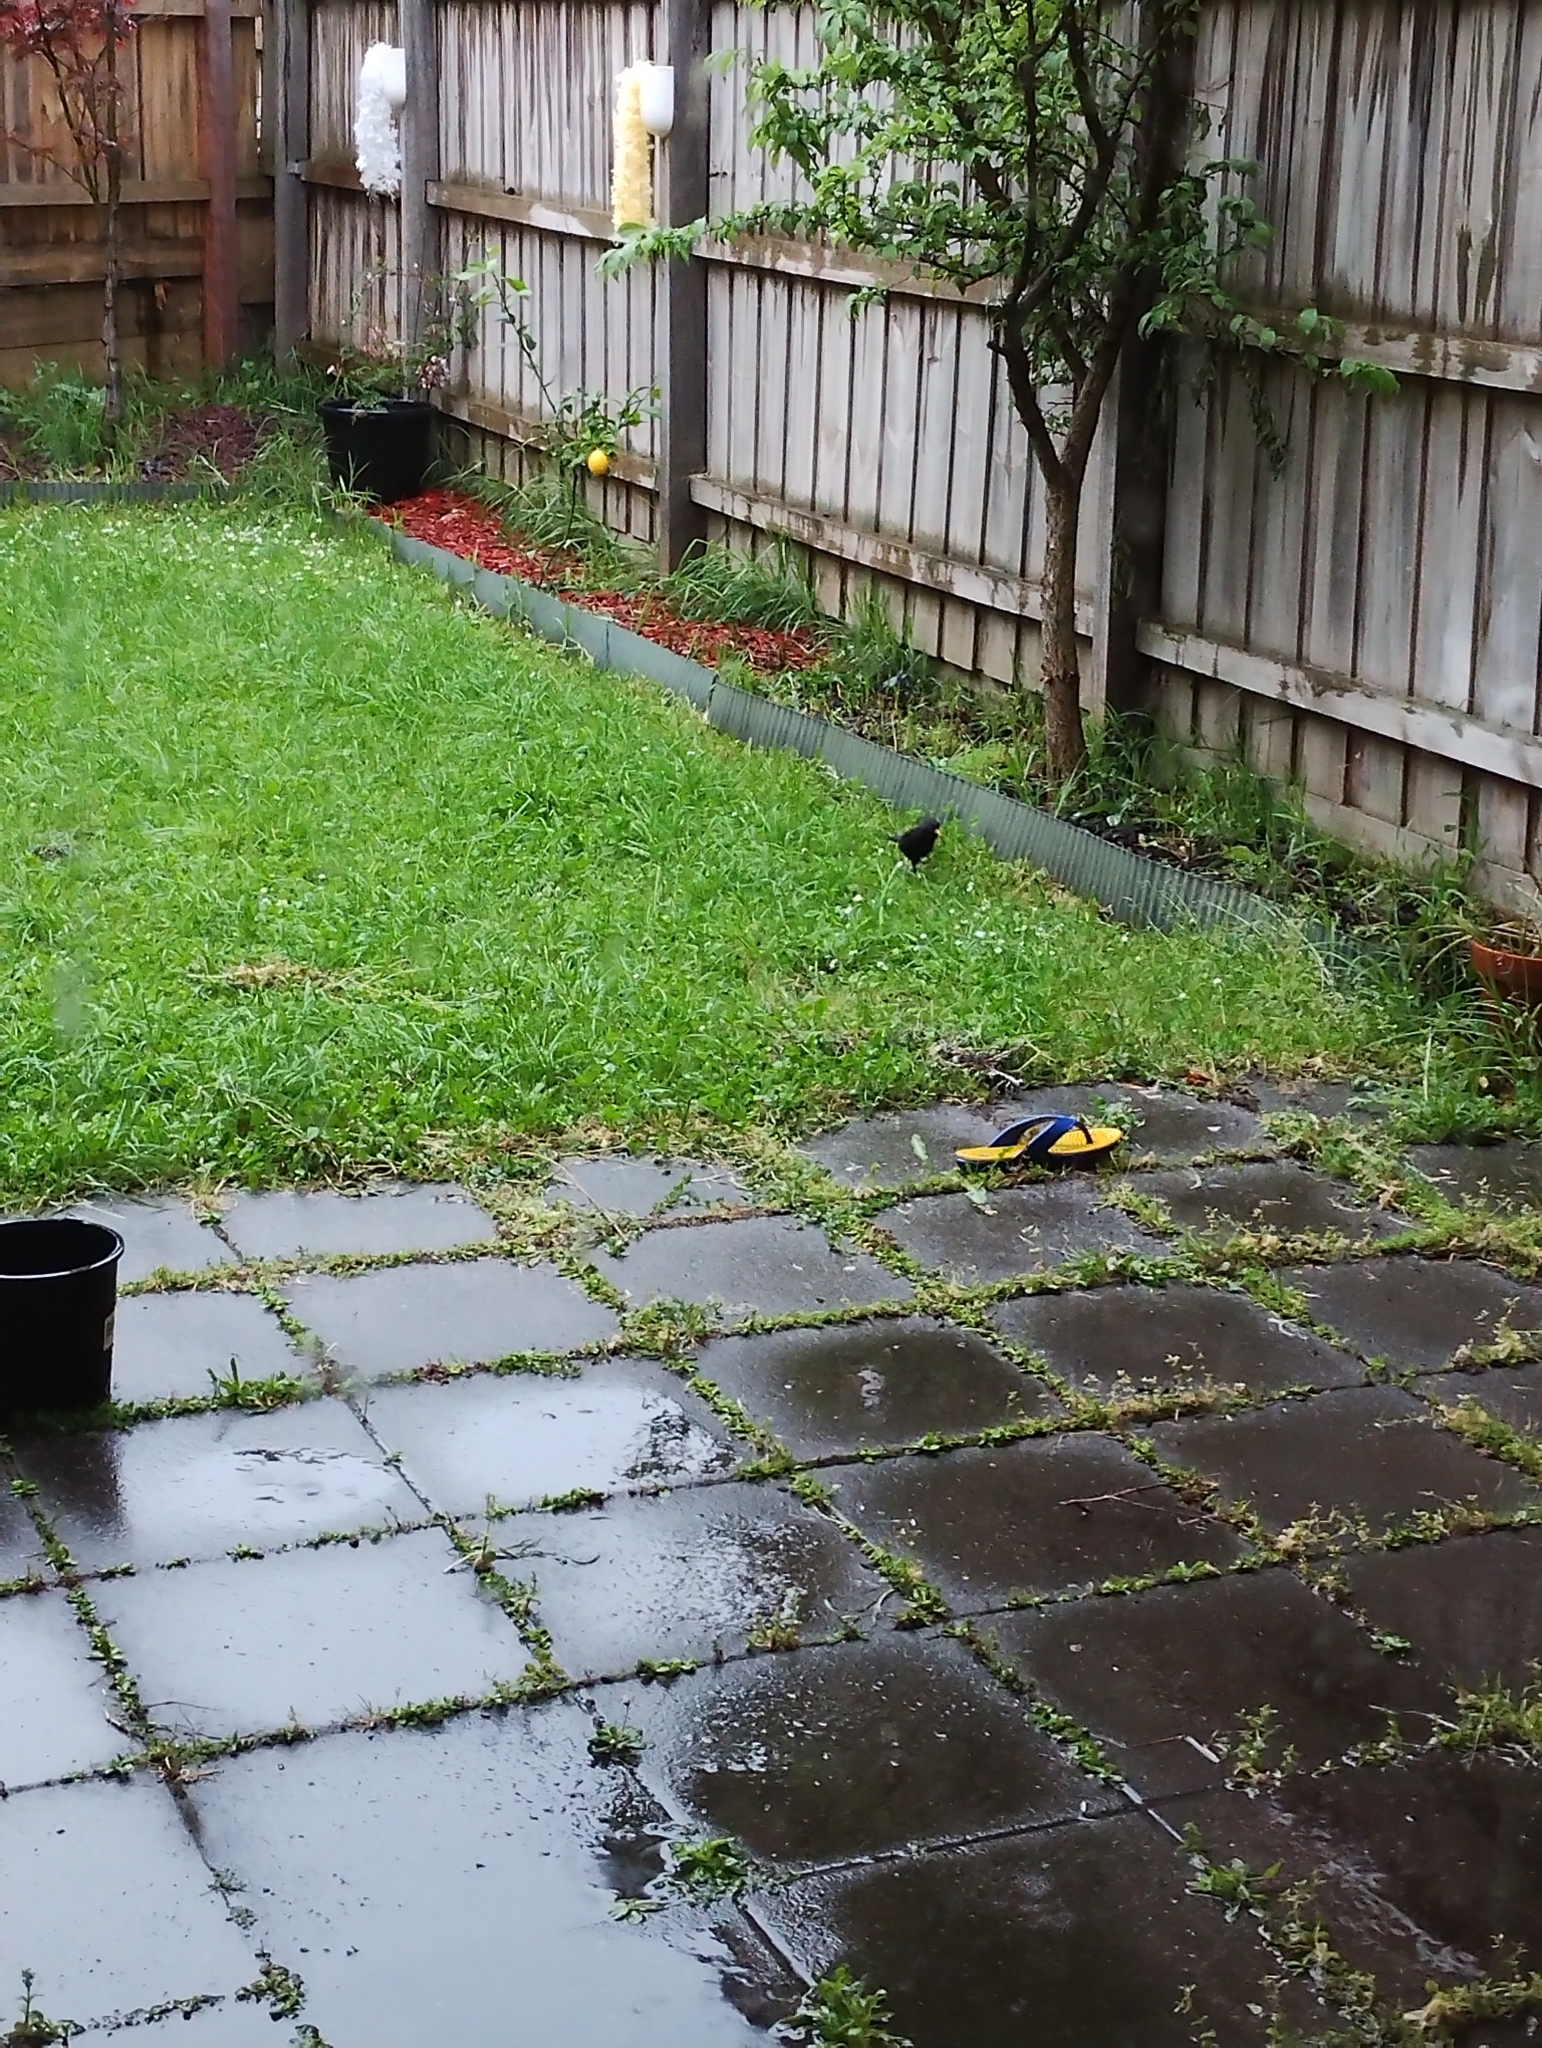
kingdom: Animalia
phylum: Chordata
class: Aves
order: Passeriformes
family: Turdidae
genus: Turdus
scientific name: Turdus merula
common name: Common blackbird
